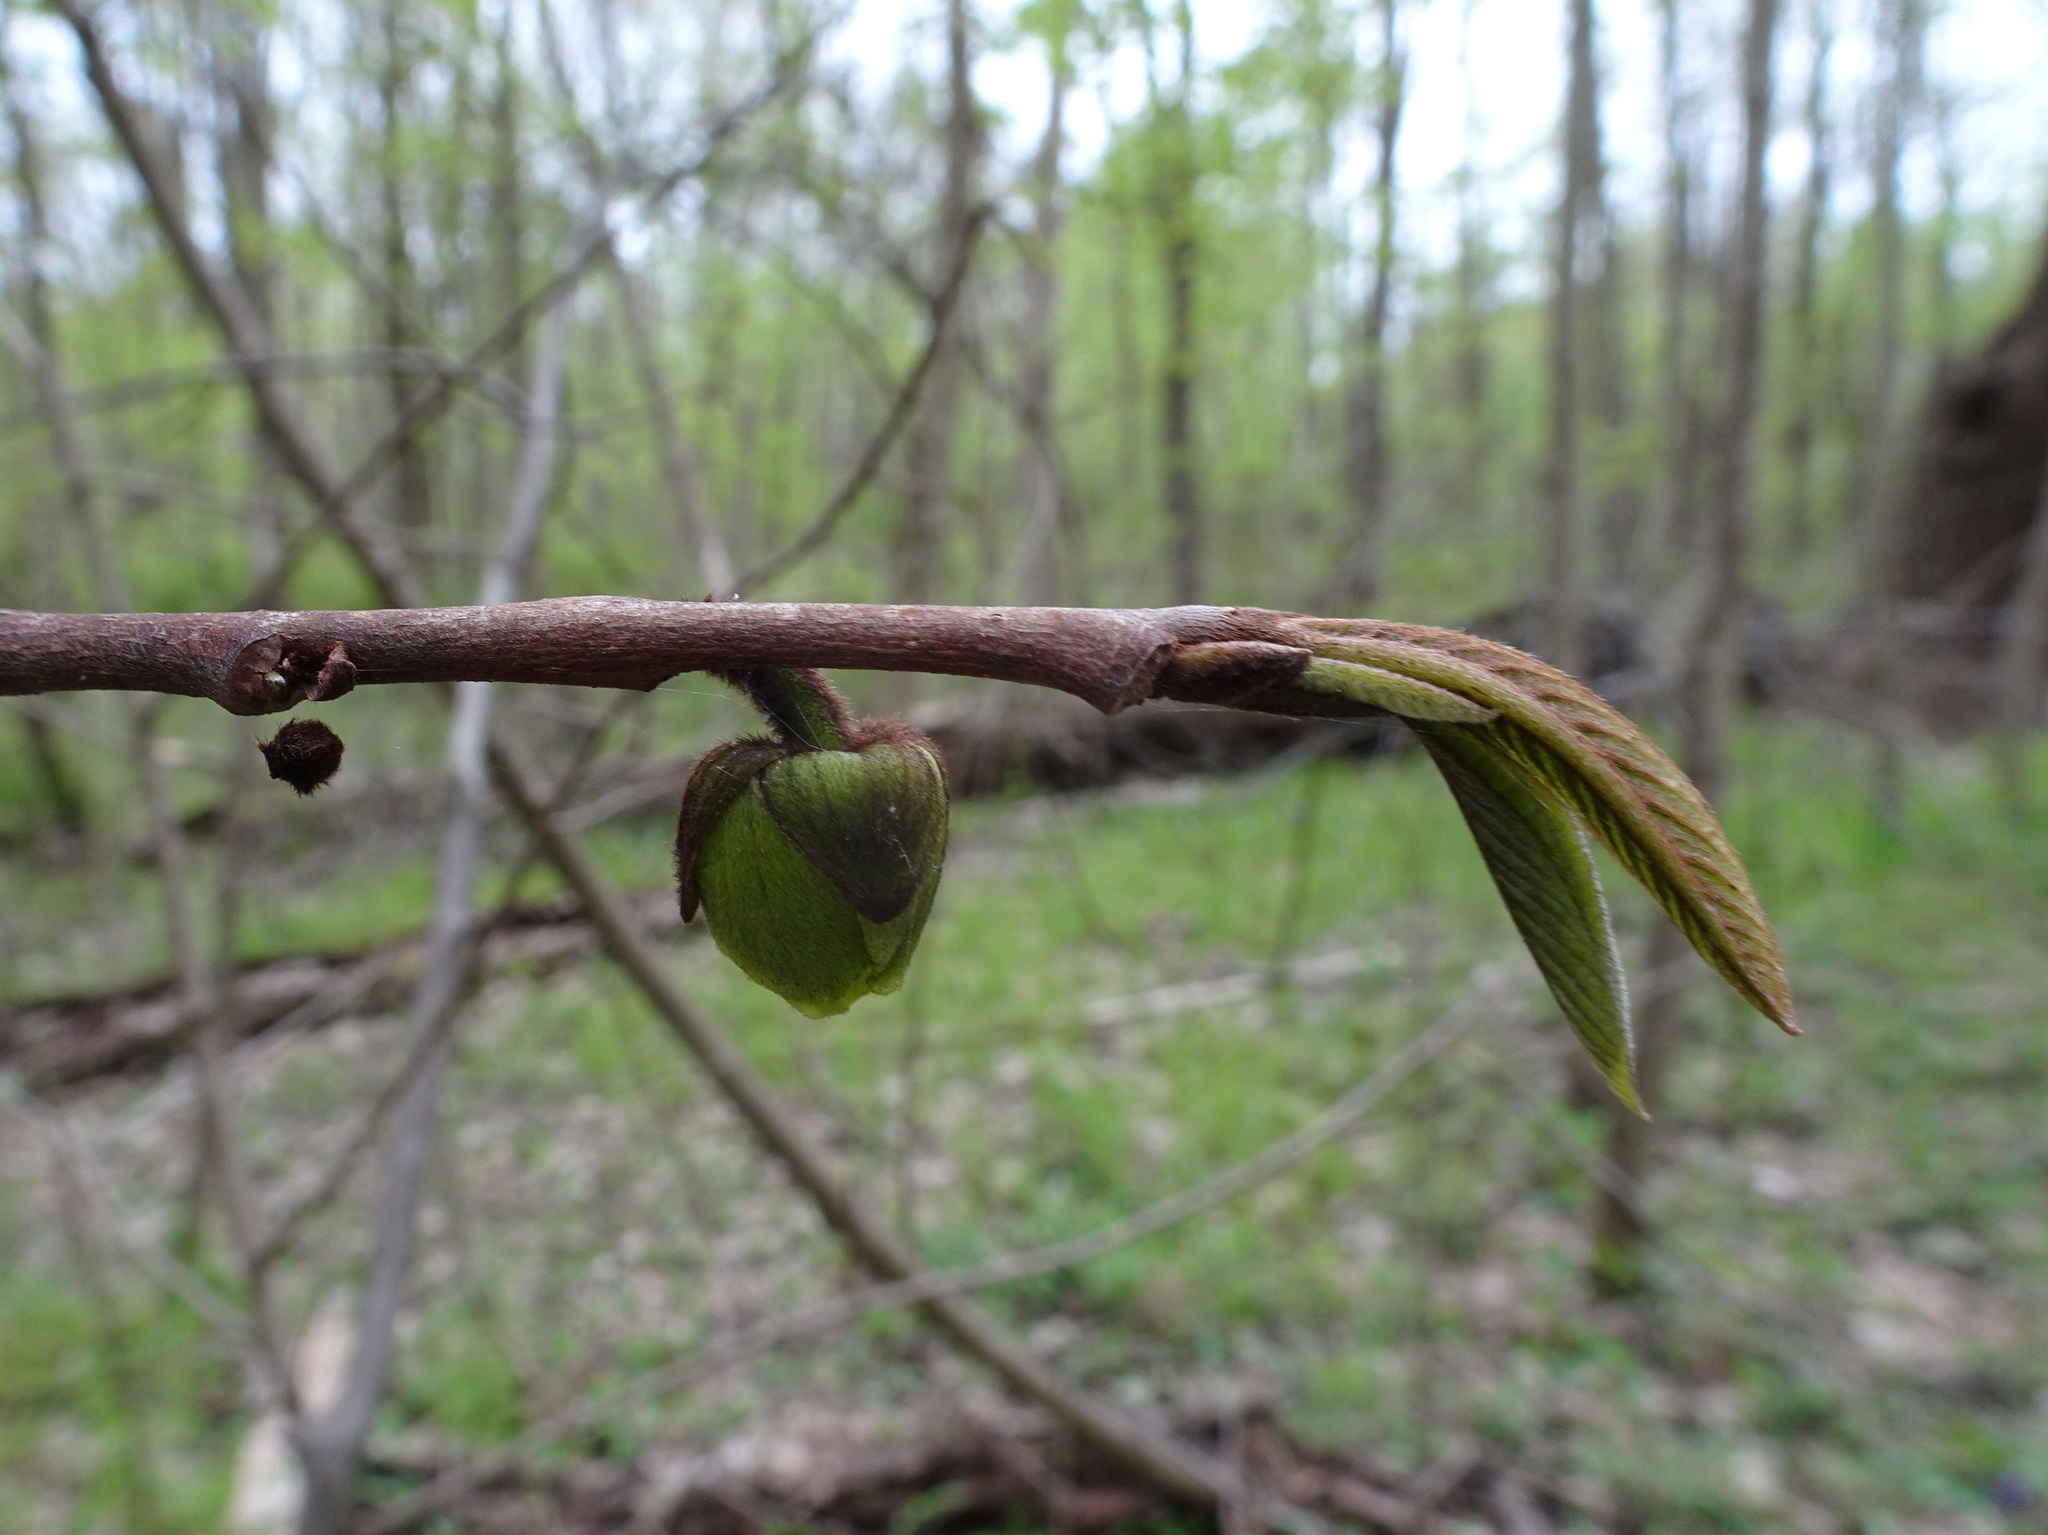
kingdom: Plantae
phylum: Tracheophyta
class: Magnoliopsida
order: Magnoliales
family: Annonaceae
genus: Asimina
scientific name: Asimina triloba
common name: Dog-banana
